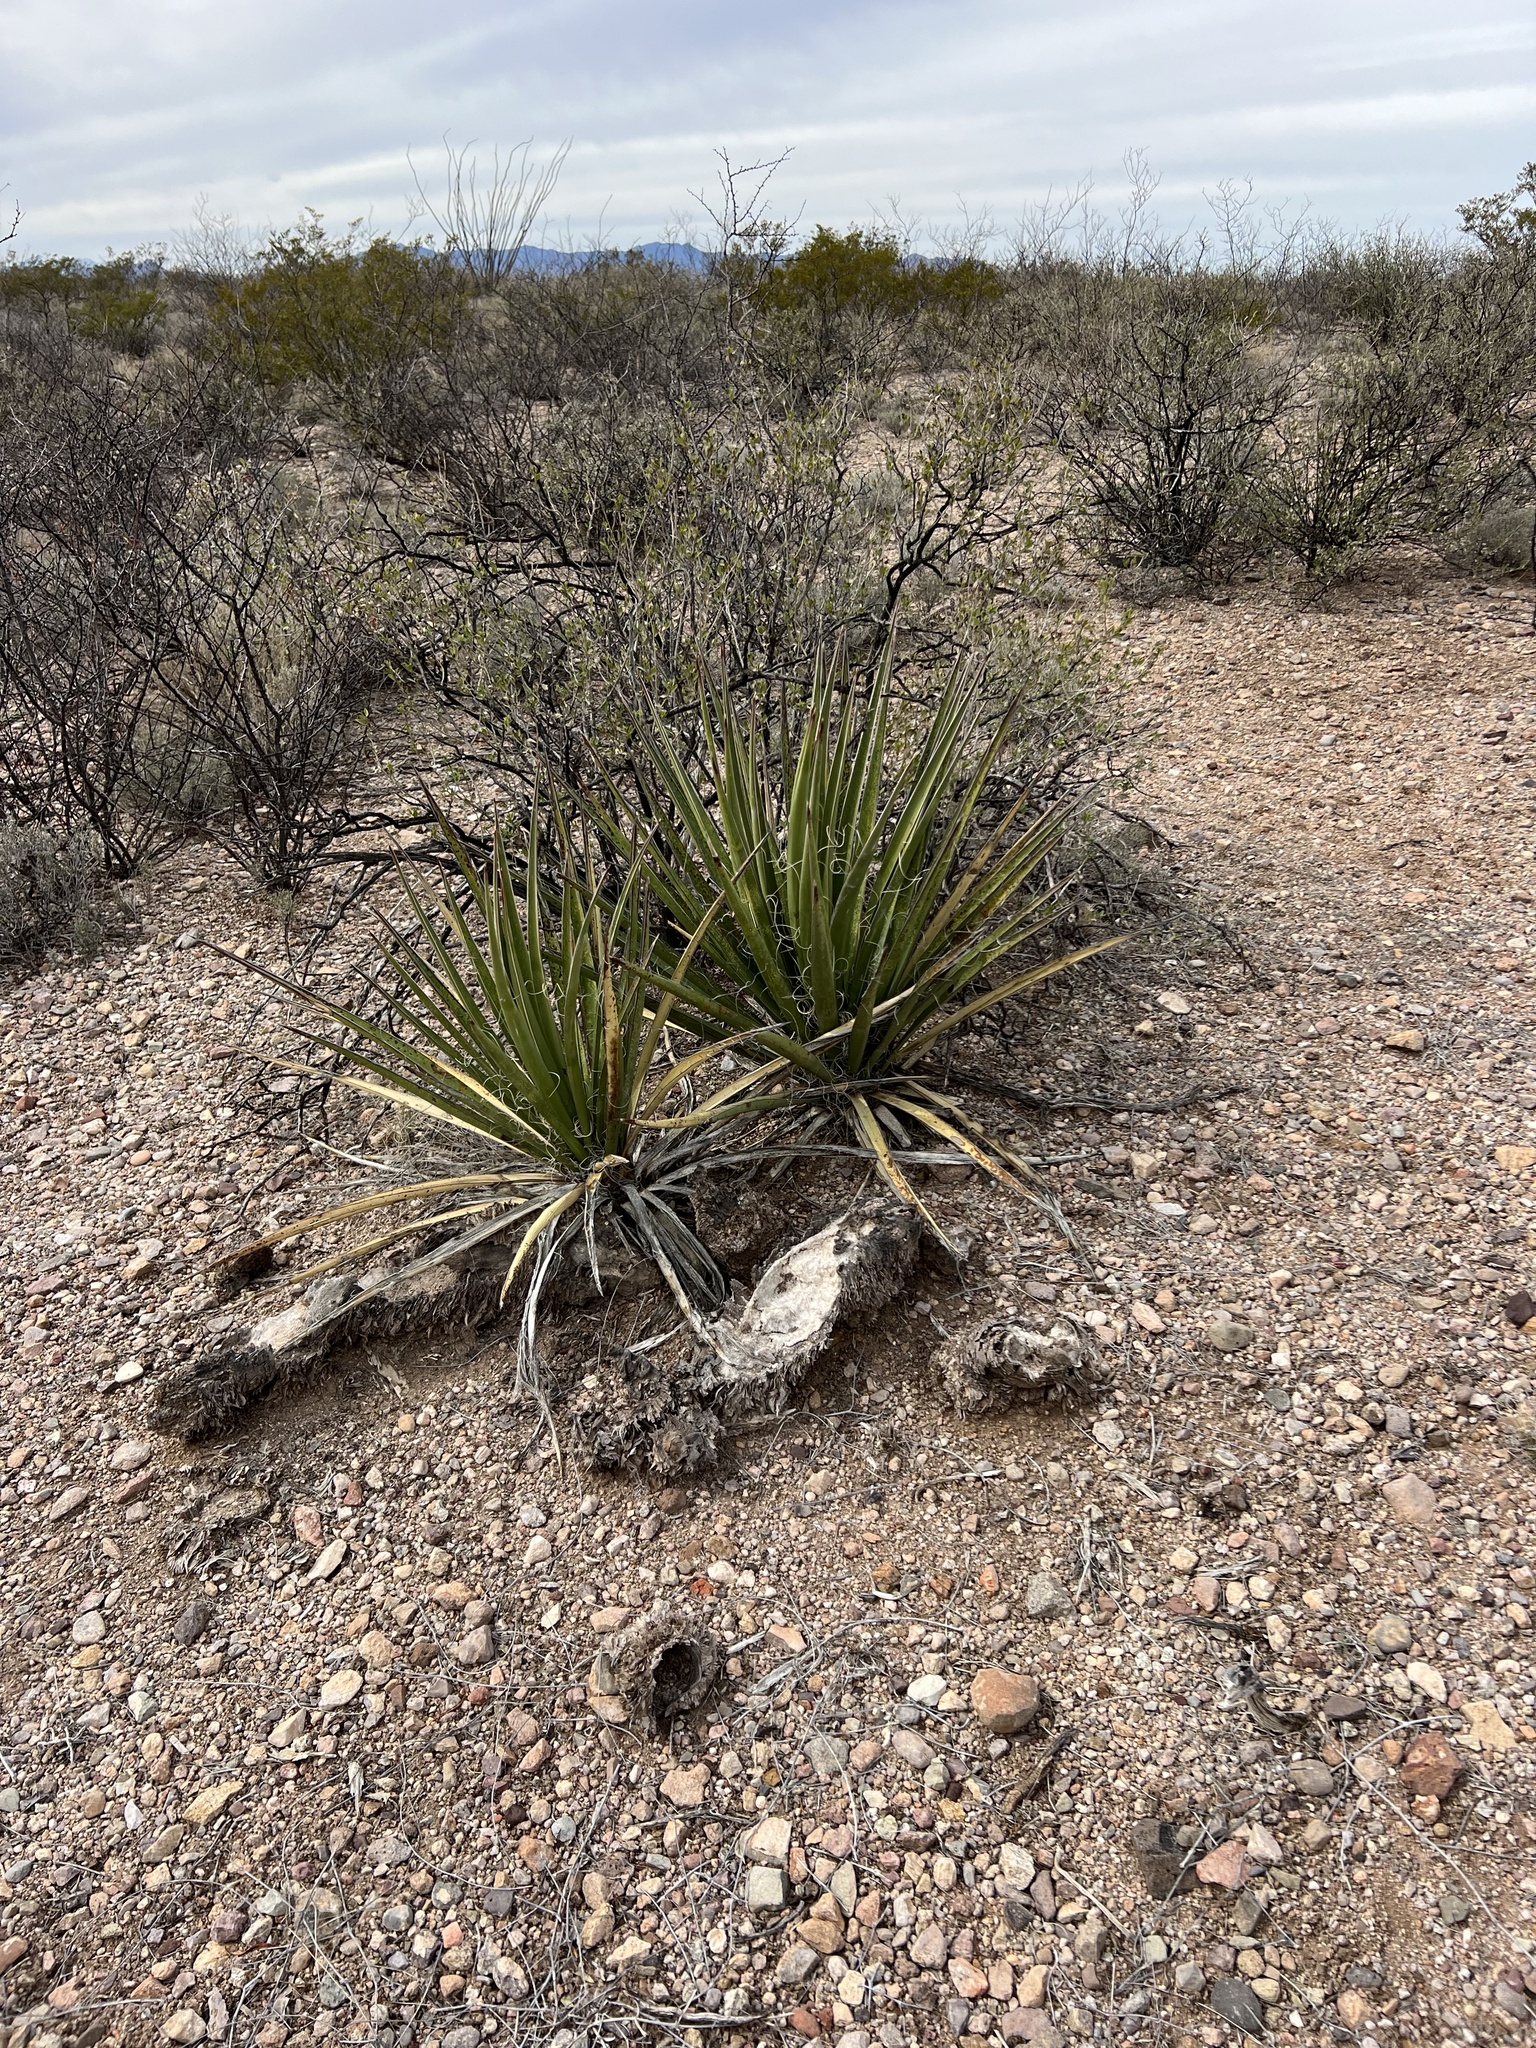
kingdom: Plantae
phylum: Tracheophyta
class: Liliopsida
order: Asparagales
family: Asparagaceae
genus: Yucca
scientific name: Yucca baccata
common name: Banana yucca
